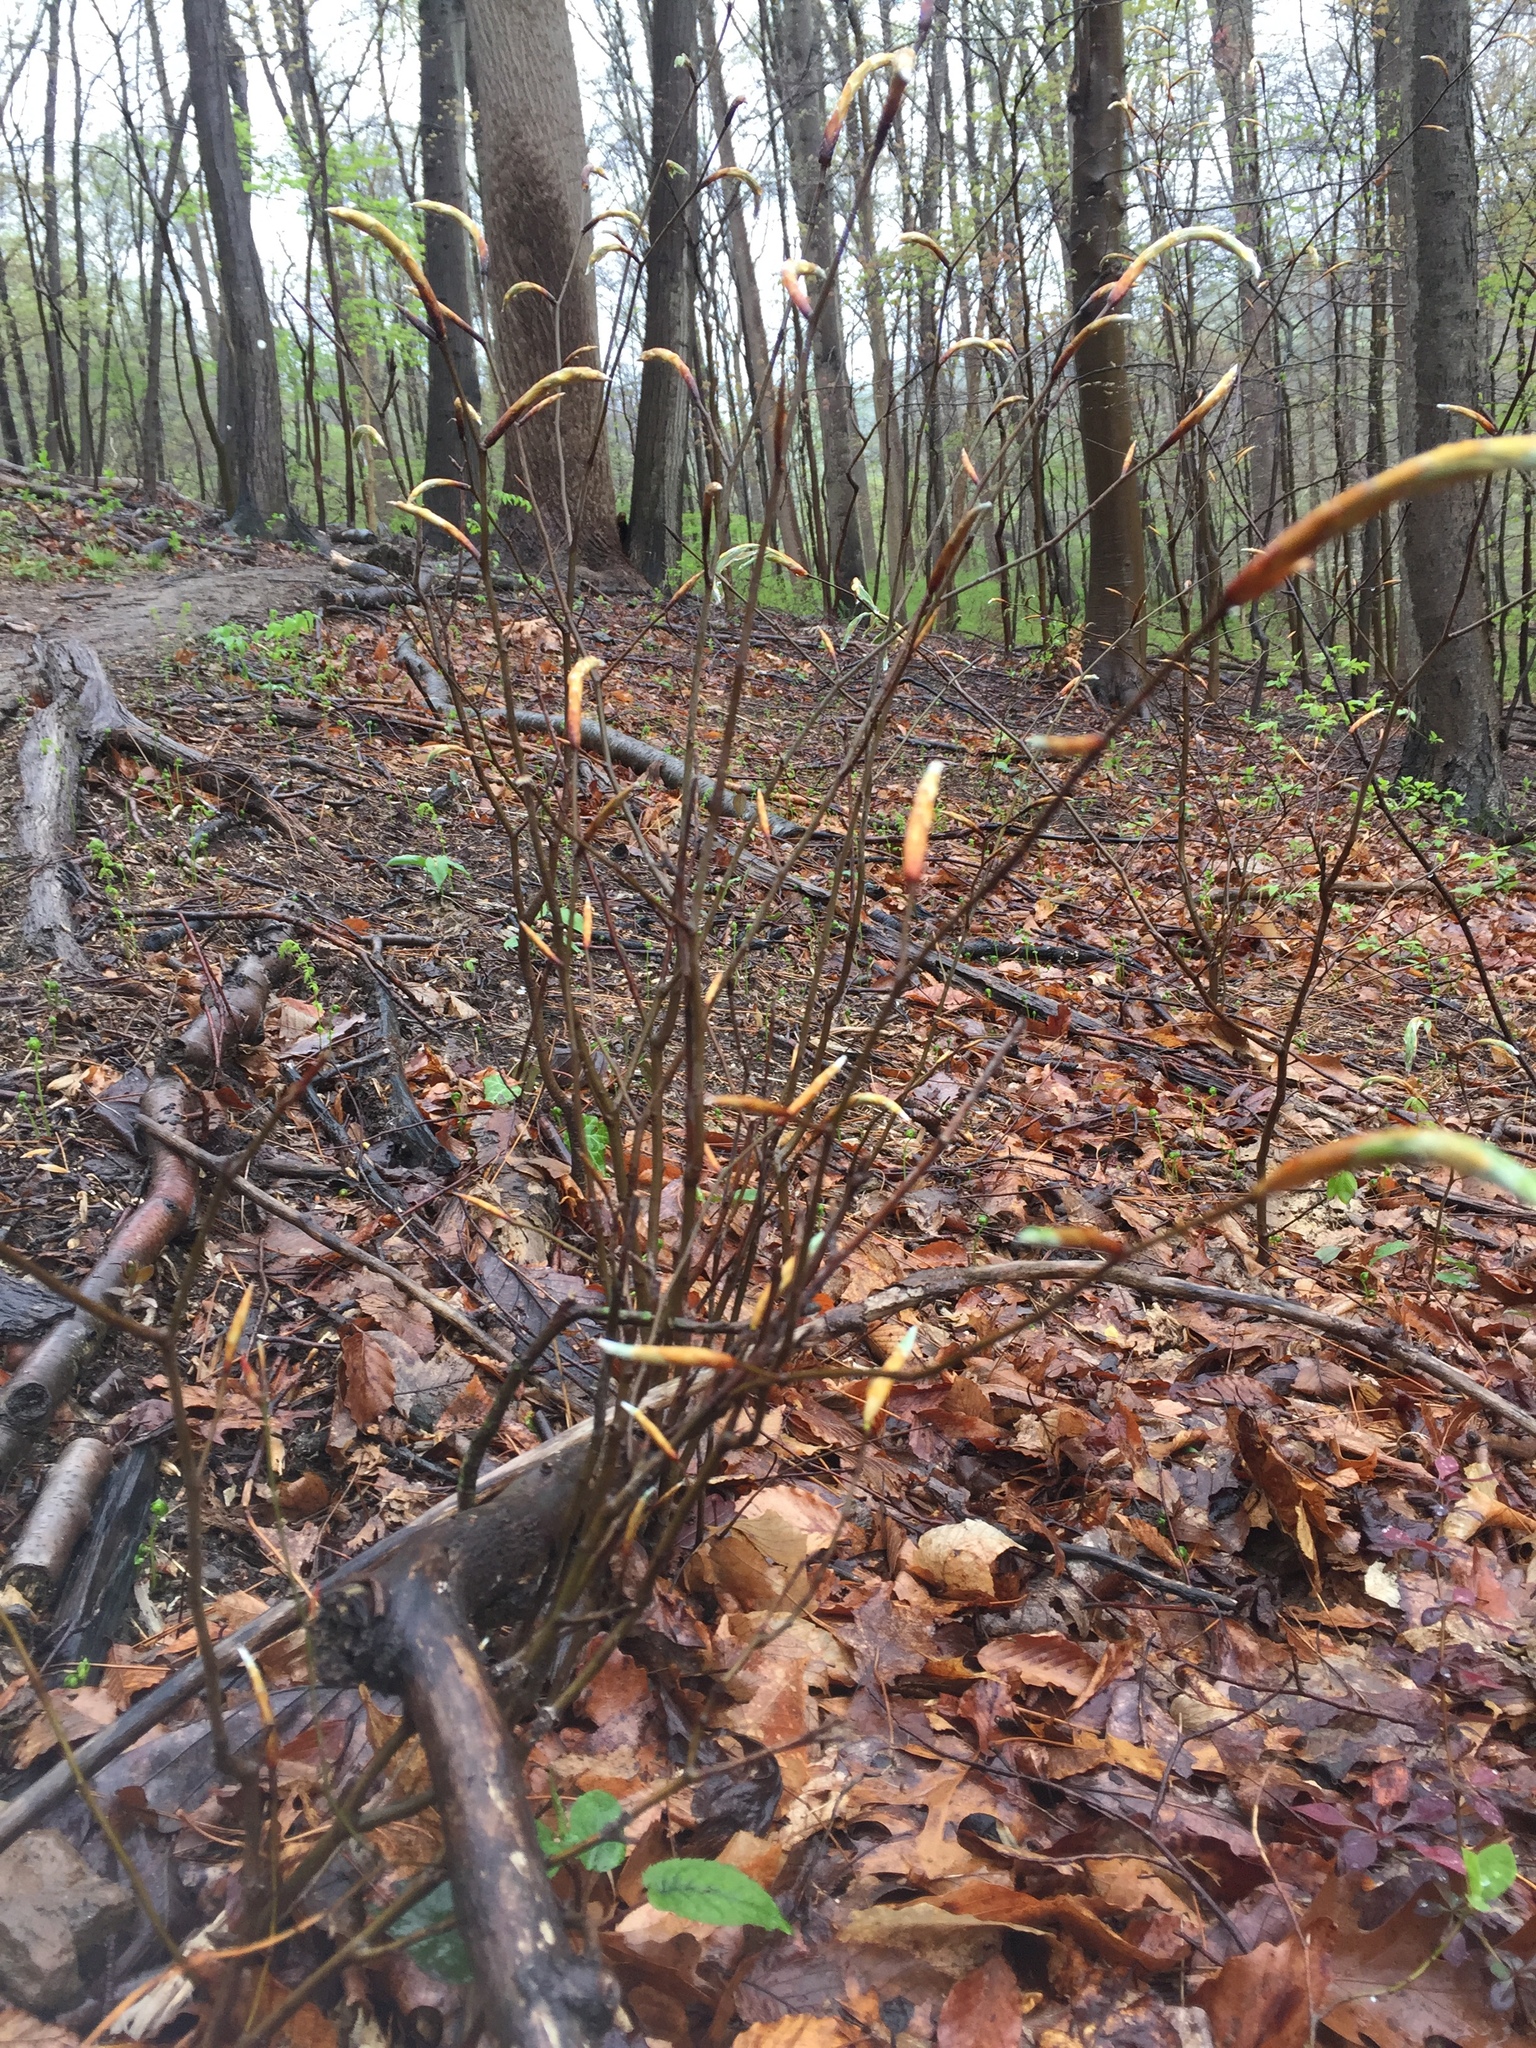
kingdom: Plantae
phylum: Tracheophyta
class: Magnoliopsida
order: Fagales
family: Fagaceae
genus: Fagus
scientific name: Fagus grandifolia
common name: American beech
